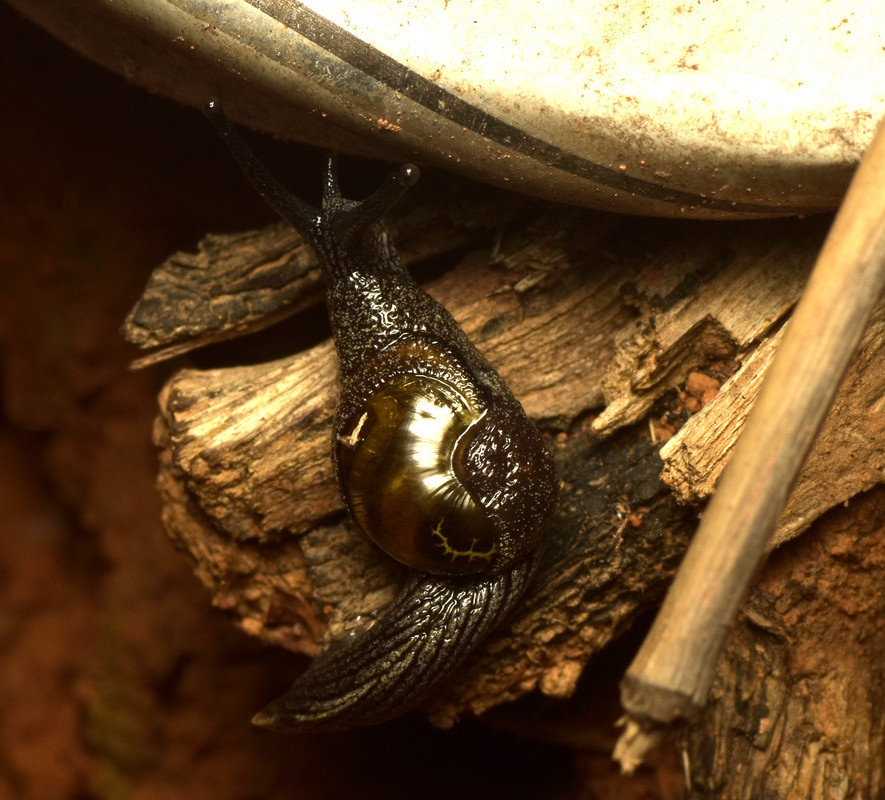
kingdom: Animalia
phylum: Mollusca
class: Gastropoda
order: Stylommatophora
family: Helicarionidae
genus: Helicarion
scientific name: Helicarion cuvieri
